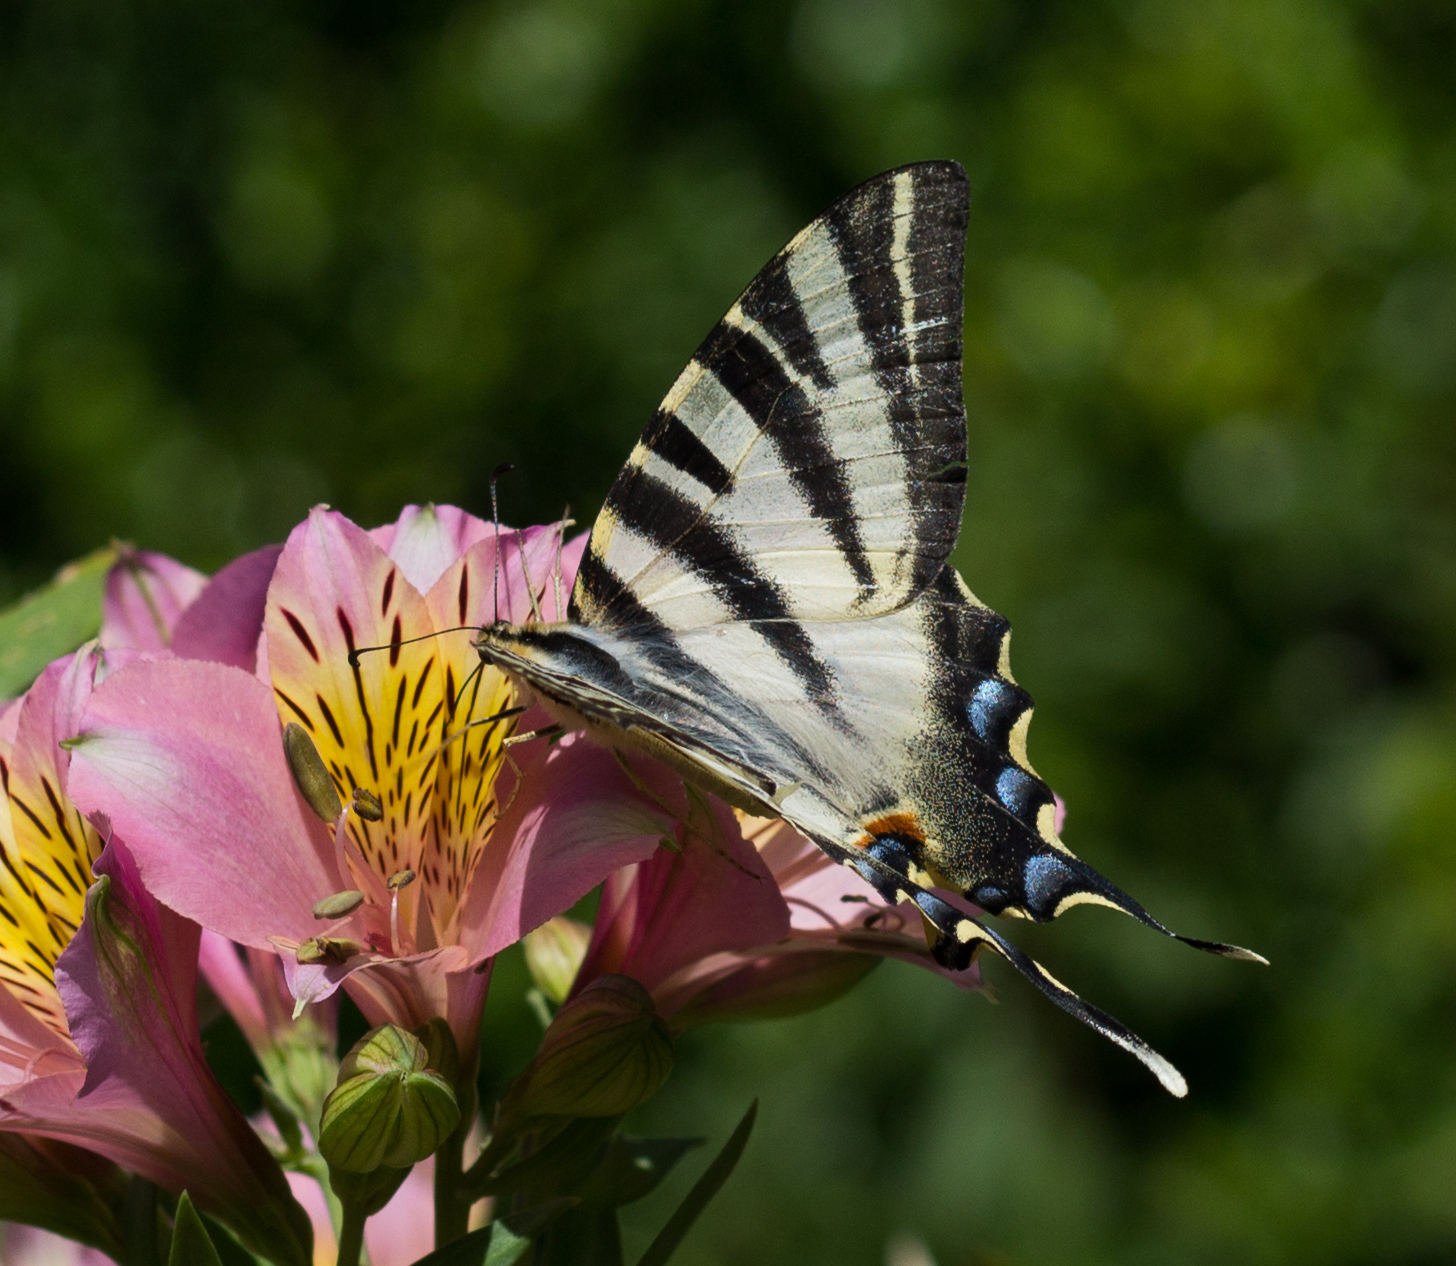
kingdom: Animalia
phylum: Arthropoda
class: Insecta
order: Lepidoptera
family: Papilionidae
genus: Iphiclides
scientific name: Iphiclides feisthamelii
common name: Iberian scarce swallowtail
